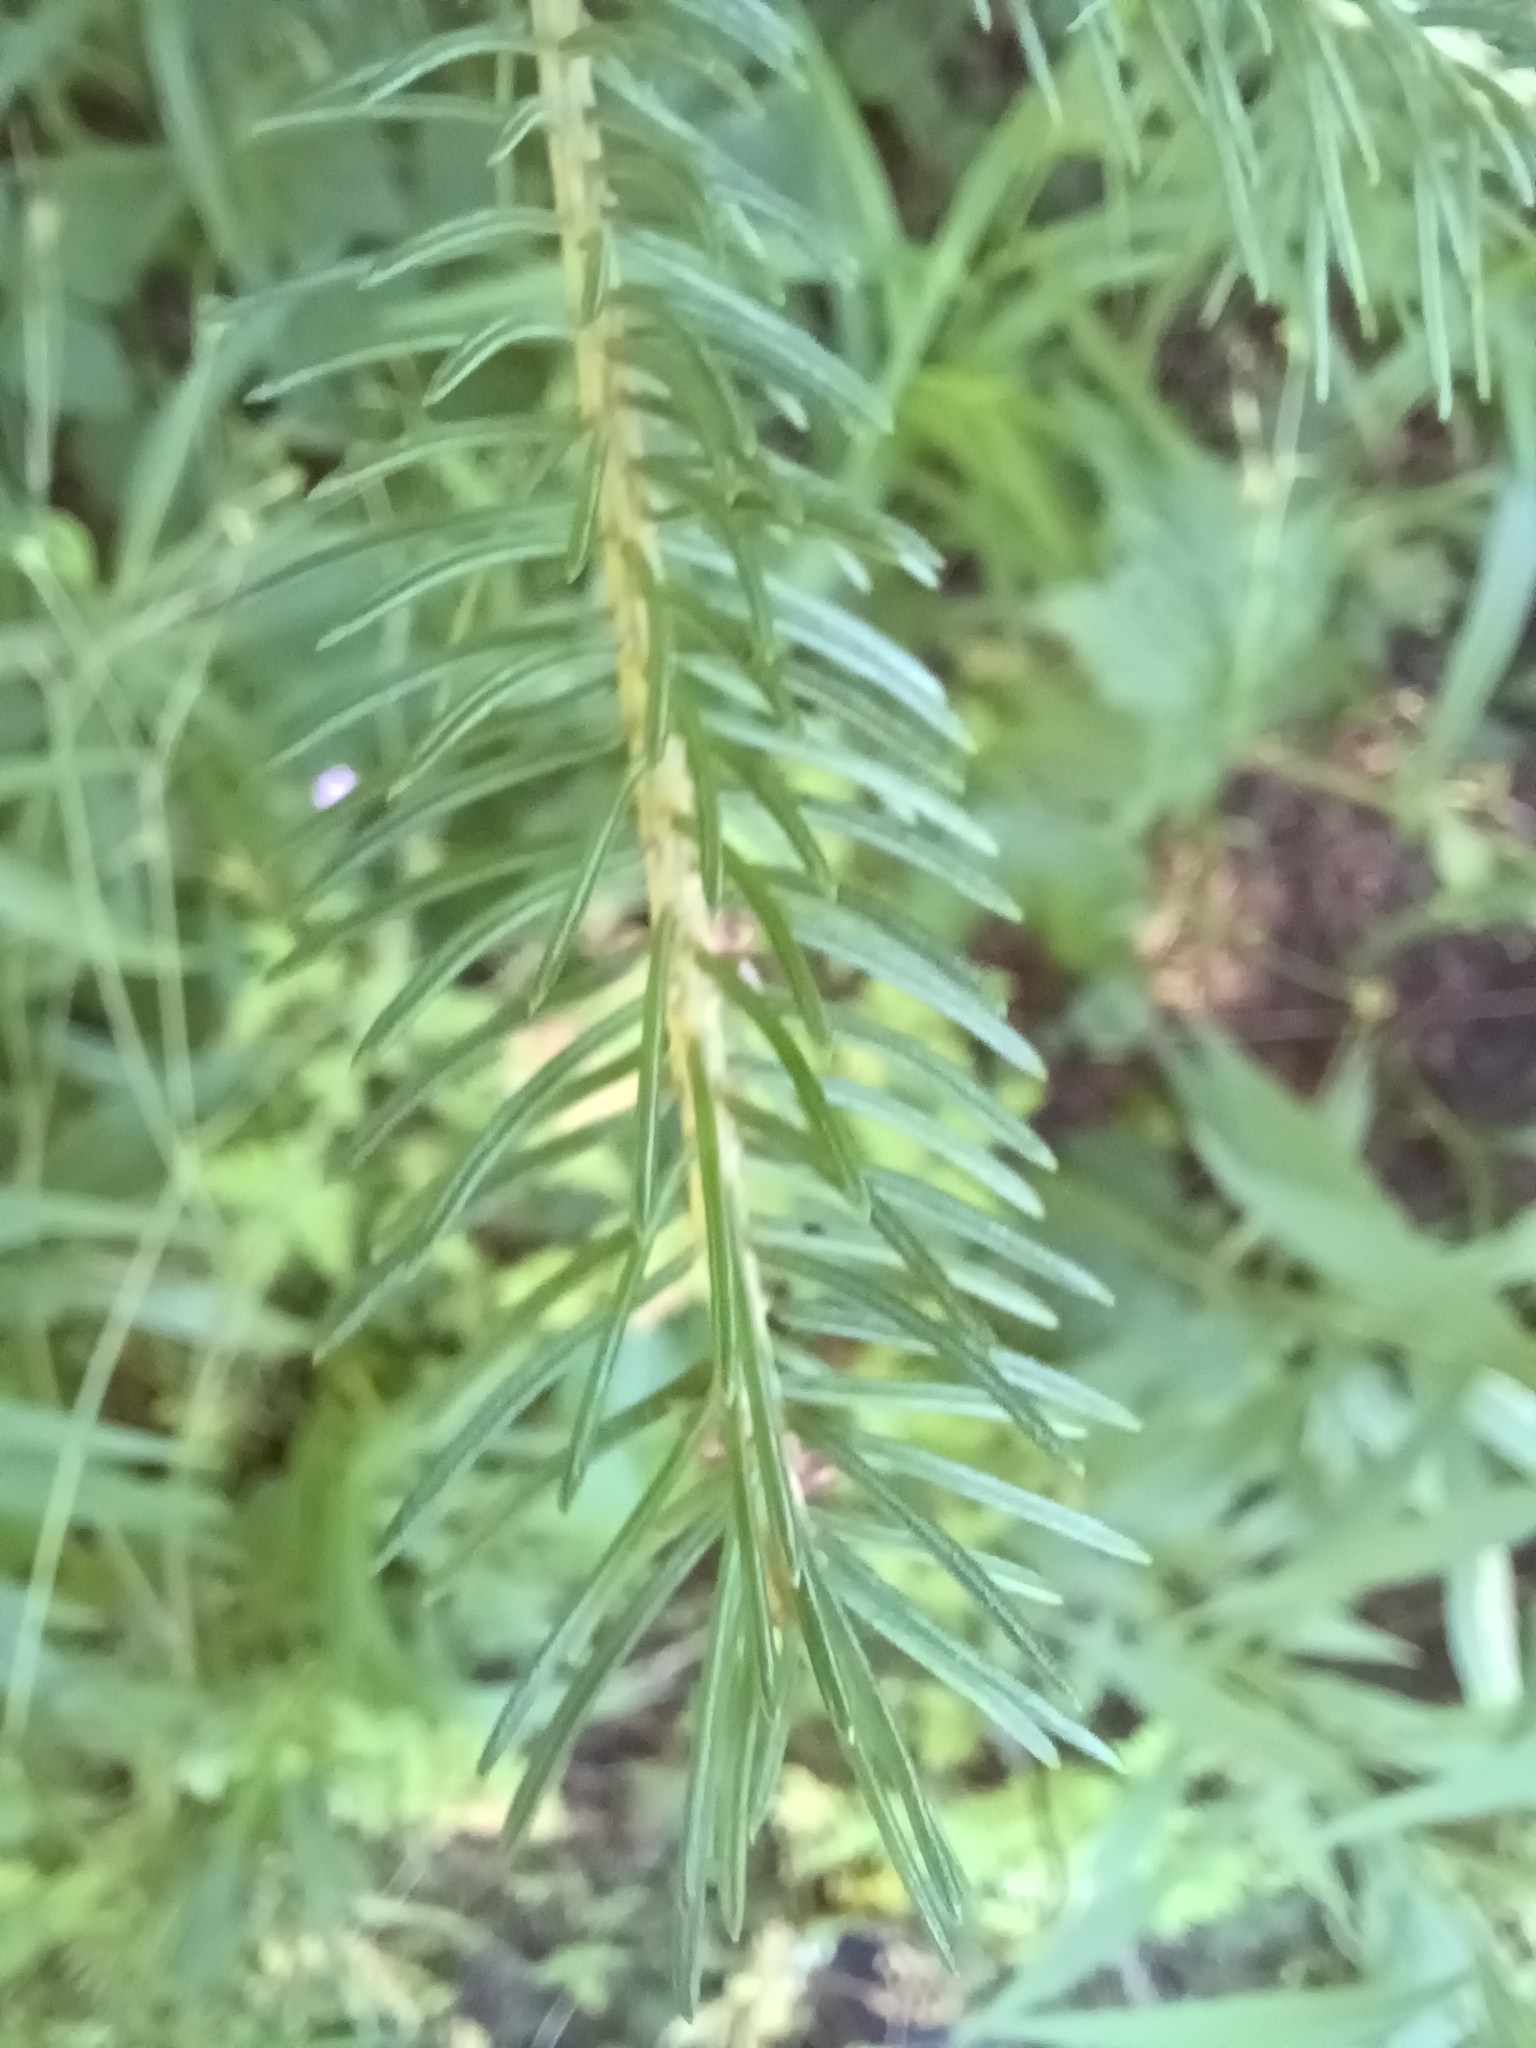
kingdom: Plantae
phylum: Tracheophyta
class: Pinopsida
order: Pinales
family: Pinaceae
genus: Picea
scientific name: Picea glauca
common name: White spruce
